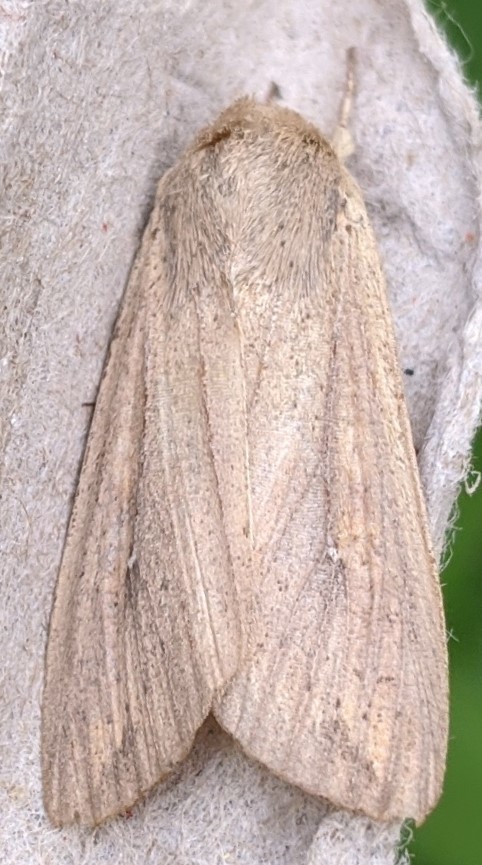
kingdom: Animalia
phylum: Arthropoda
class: Insecta
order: Lepidoptera
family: Noctuidae
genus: Mythimna
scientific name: Mythimna unipuncta
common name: White-speck
